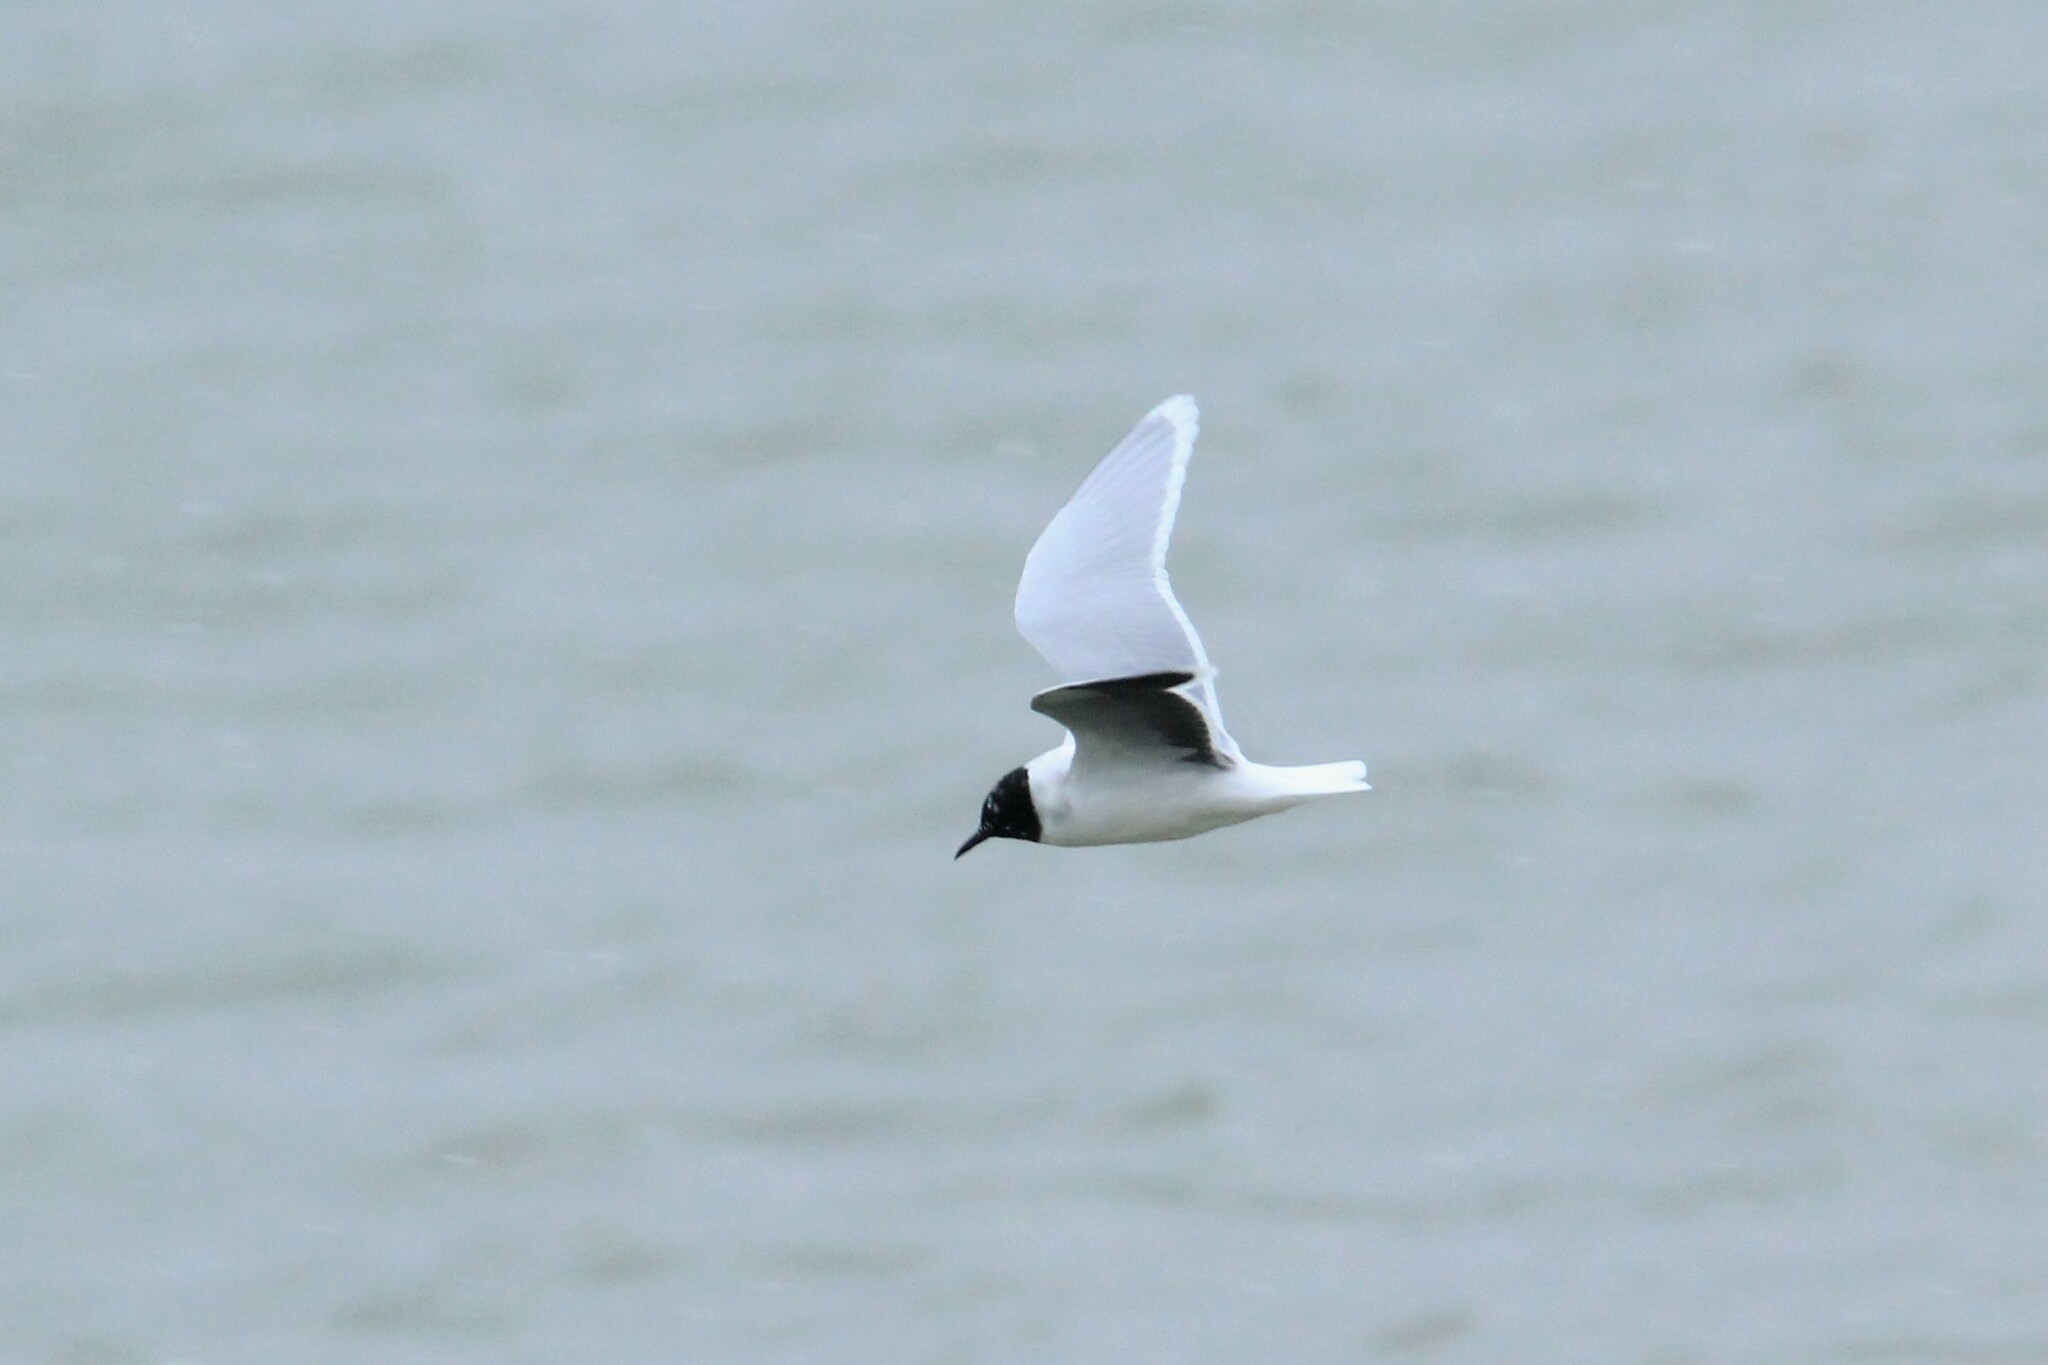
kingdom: Animalia
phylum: Chordata
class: Aves
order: Charadriiformes
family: Laridae
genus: Hydrocoloeus
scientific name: Hydrocoloeus minutus
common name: Little gull
